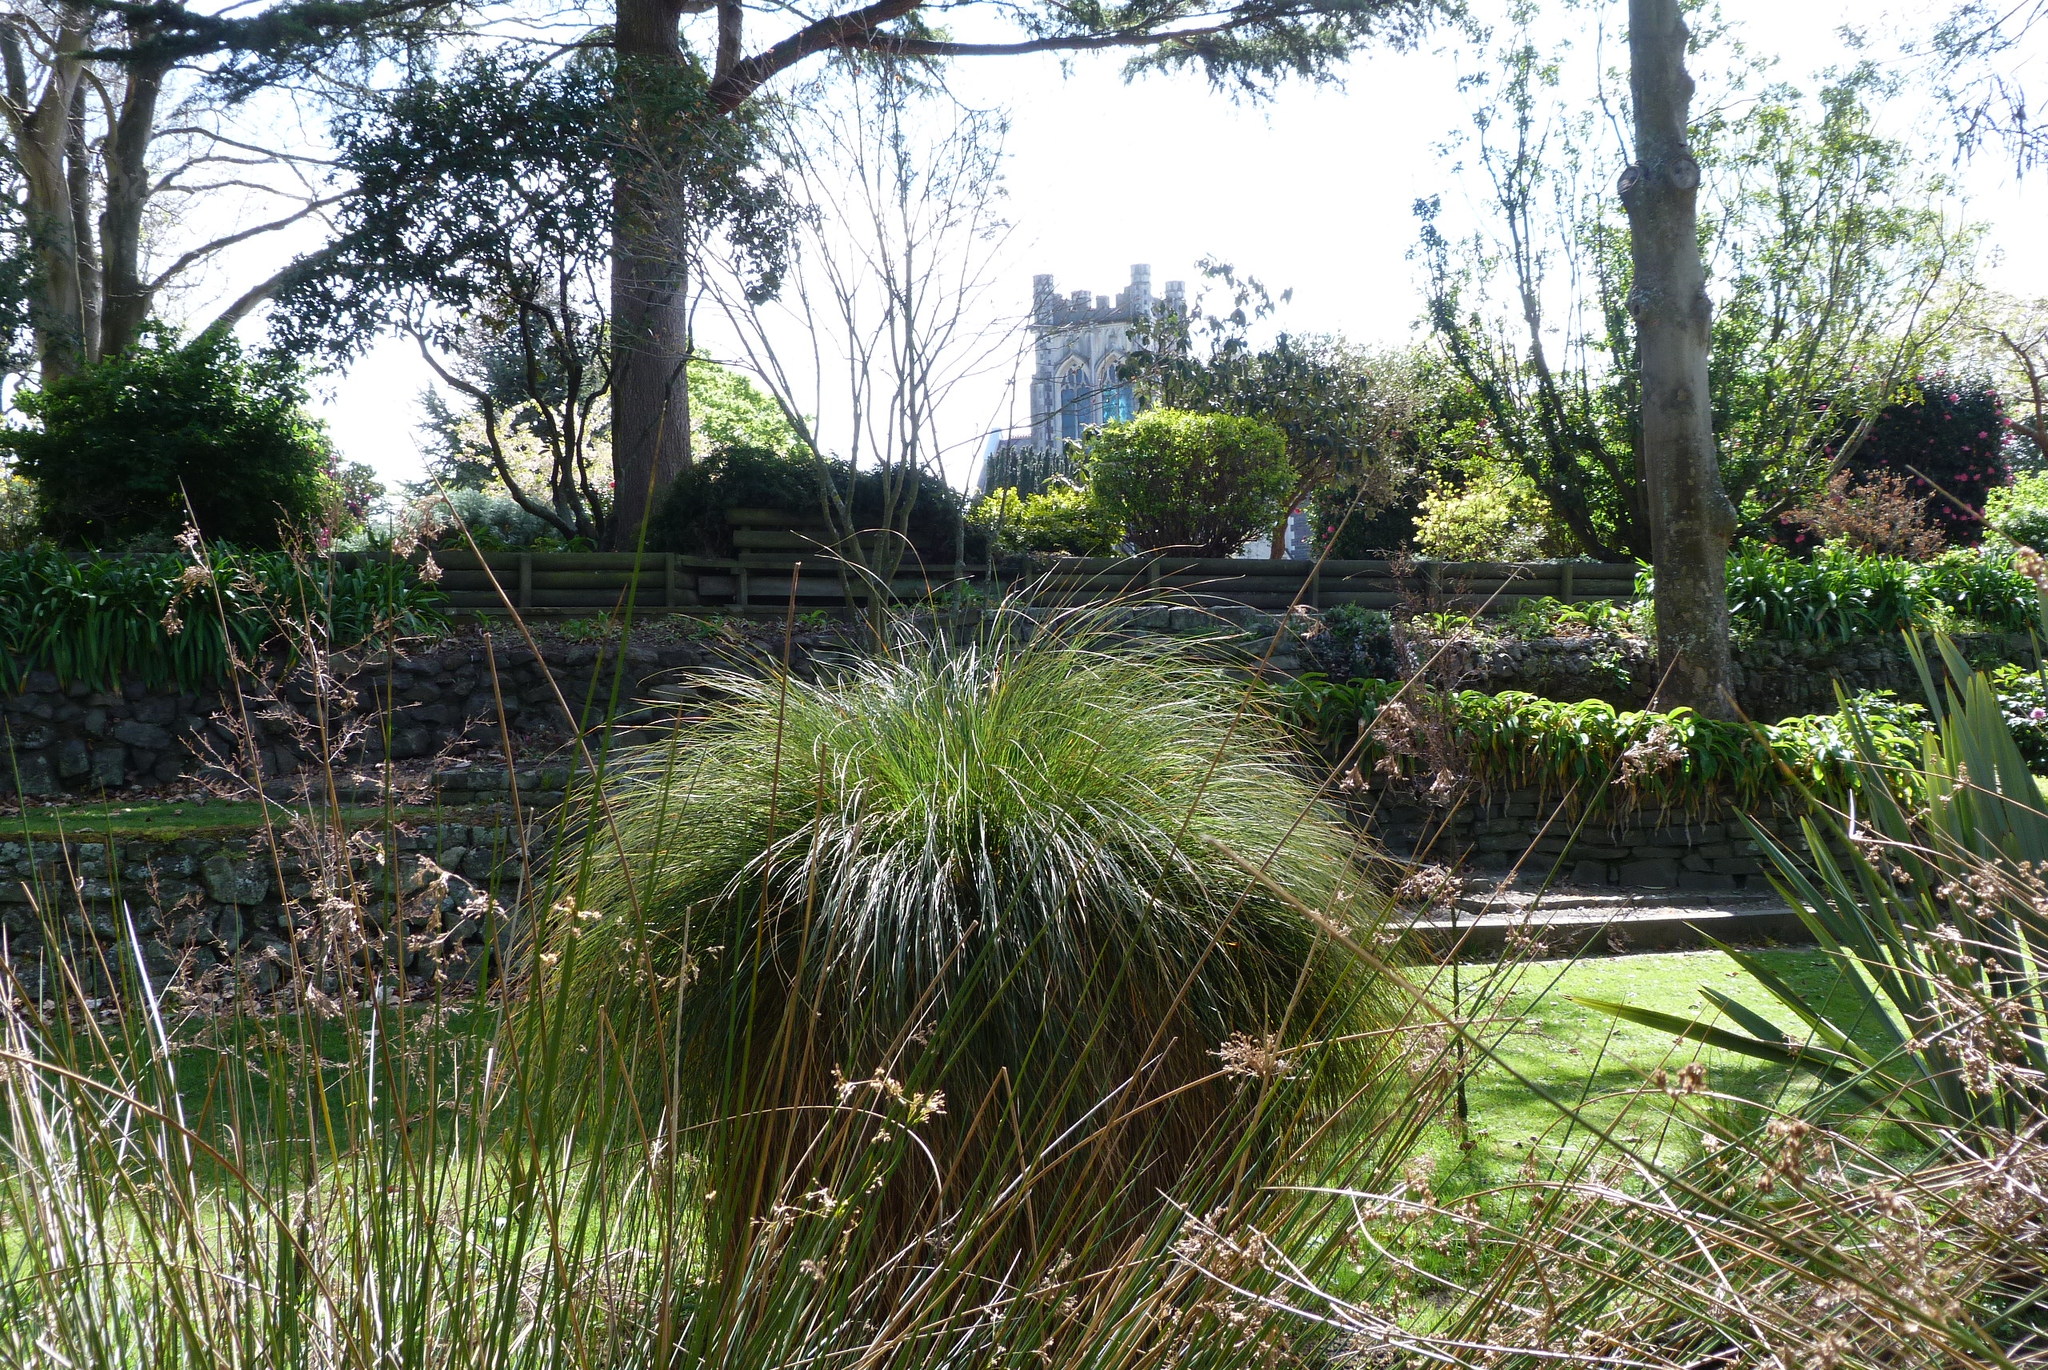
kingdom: Plantae
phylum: Tracheophyta
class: Liliopsida
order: Poales
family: Cyperaceae
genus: Carex
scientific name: Carex secta
